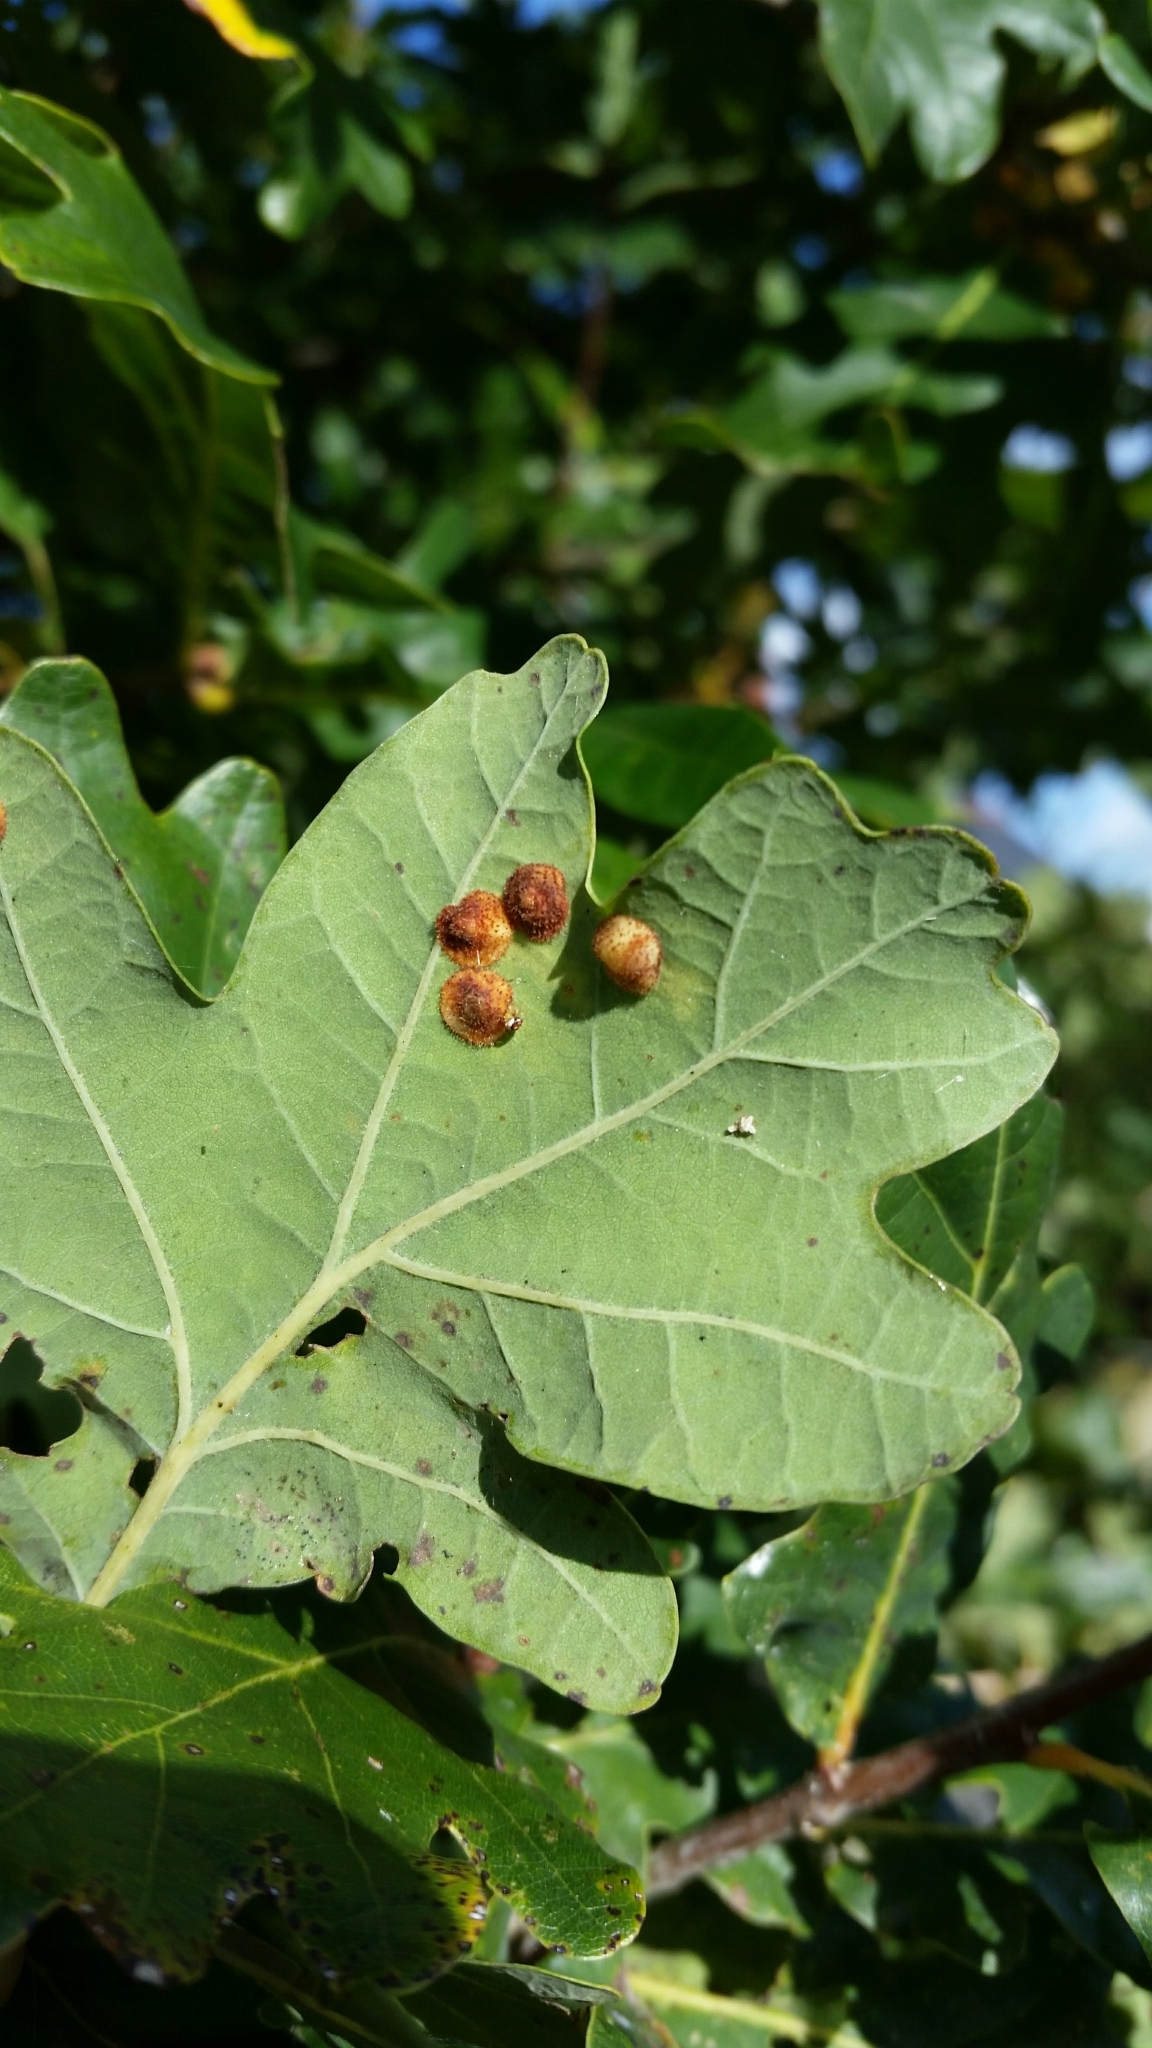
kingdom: Animalia
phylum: Arthropoda
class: Insecta
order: Hymenoptera
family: Cynipidae
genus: Neuroterus
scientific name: Neuroterus quercusbaccarum
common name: Common spangle gall
